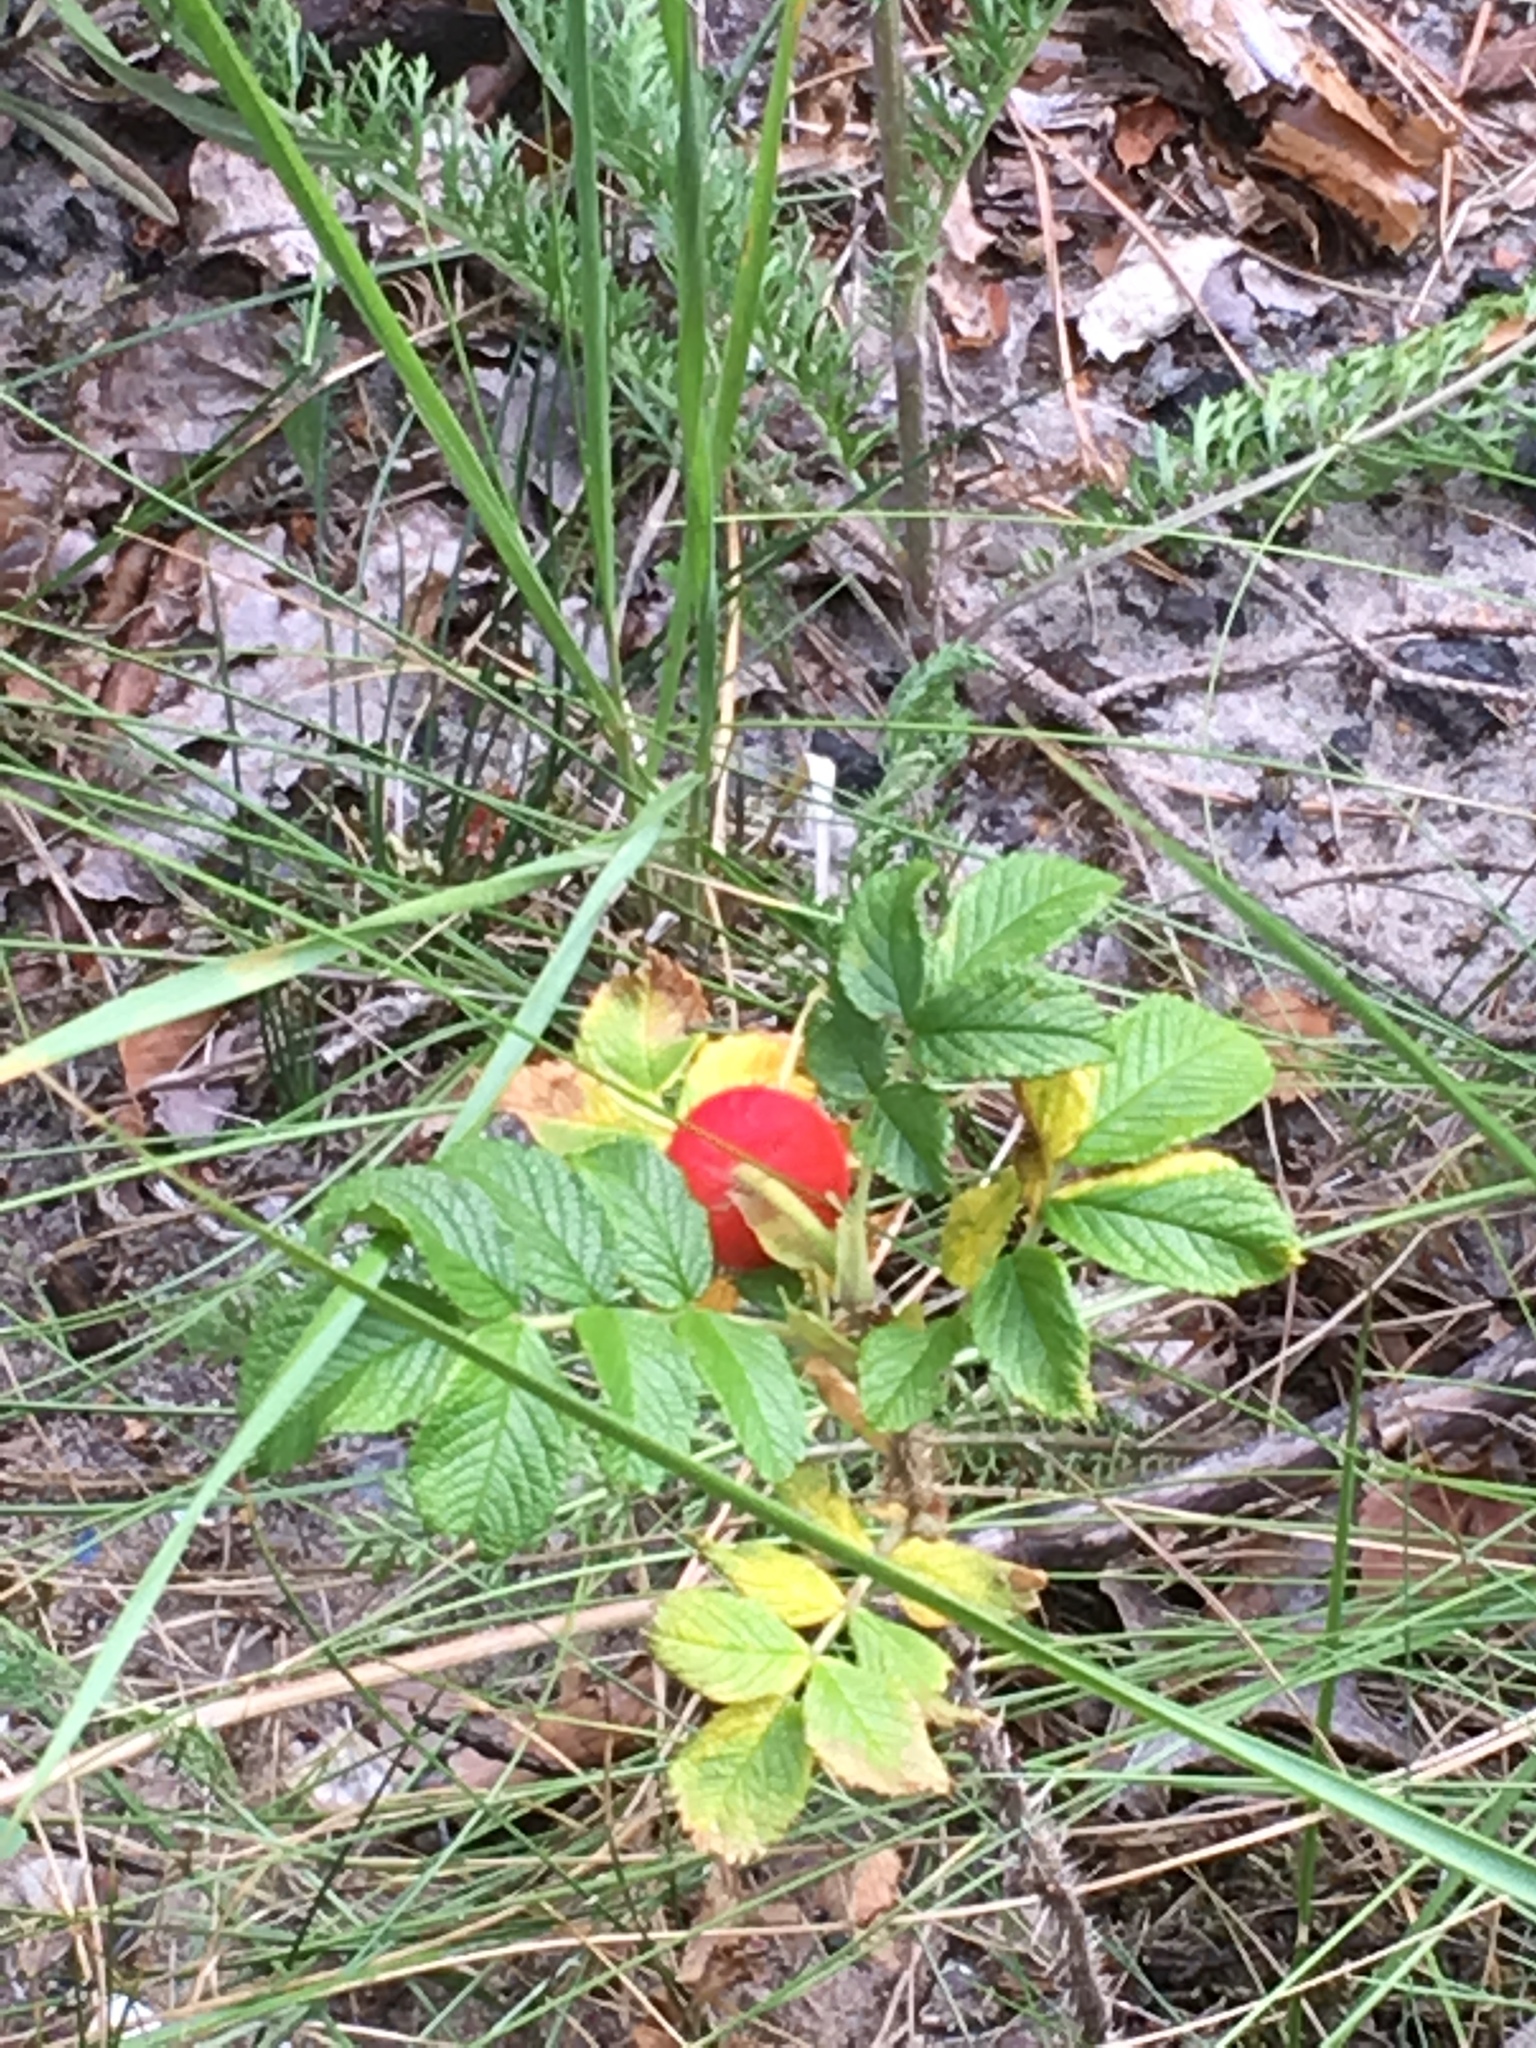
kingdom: Plantae
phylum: Tracheophyta
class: Magnoliopsida
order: Rosales
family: Rosaceae
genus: Rosa
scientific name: Rosa rugosa
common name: Japanese rose
